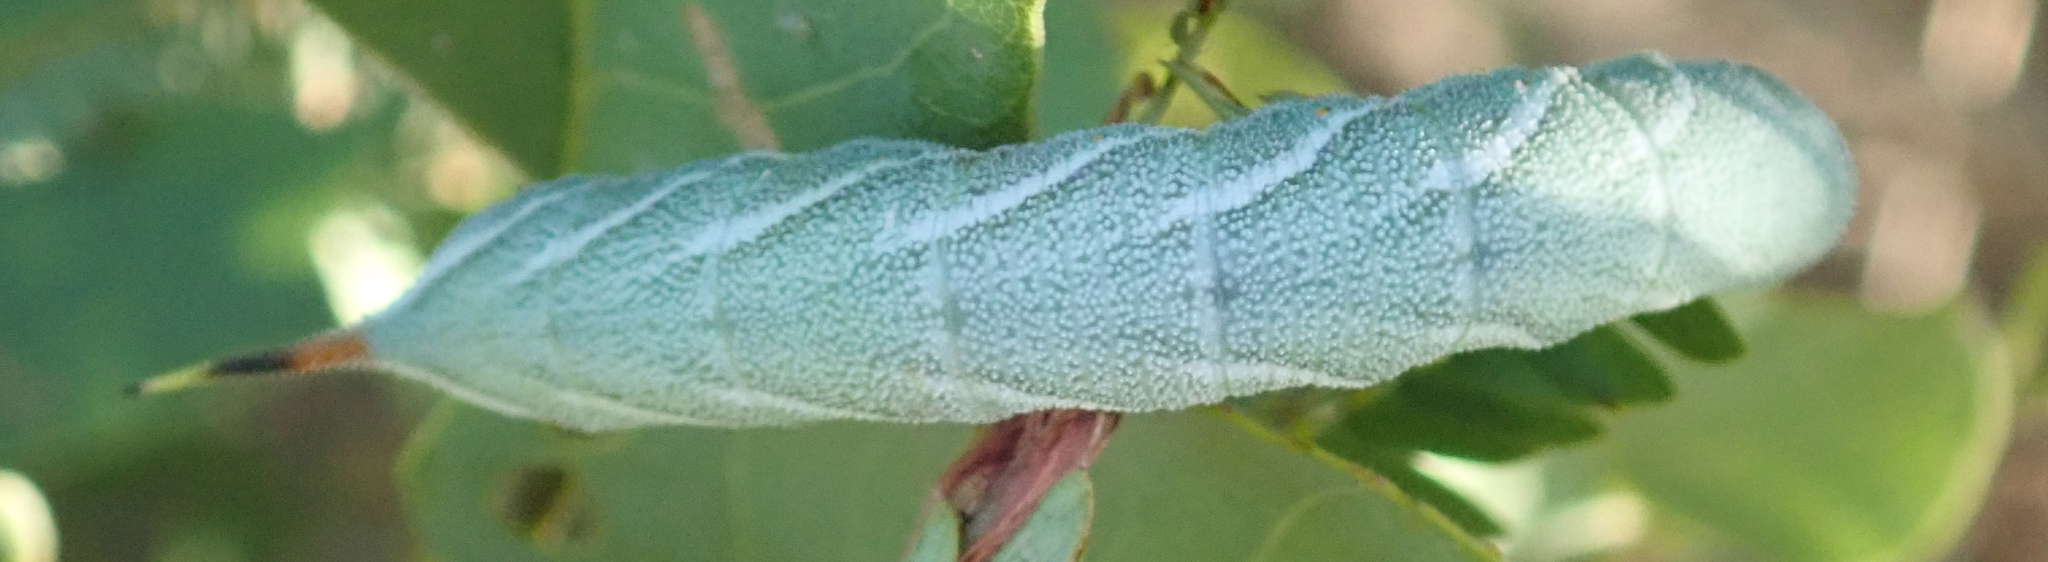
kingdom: Animalia
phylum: Arthropoda
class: Insecta
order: Lepidoptera
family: Sphingidae
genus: Agrius
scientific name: Agrius convolvuli
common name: Convolvulus hawkmoth
